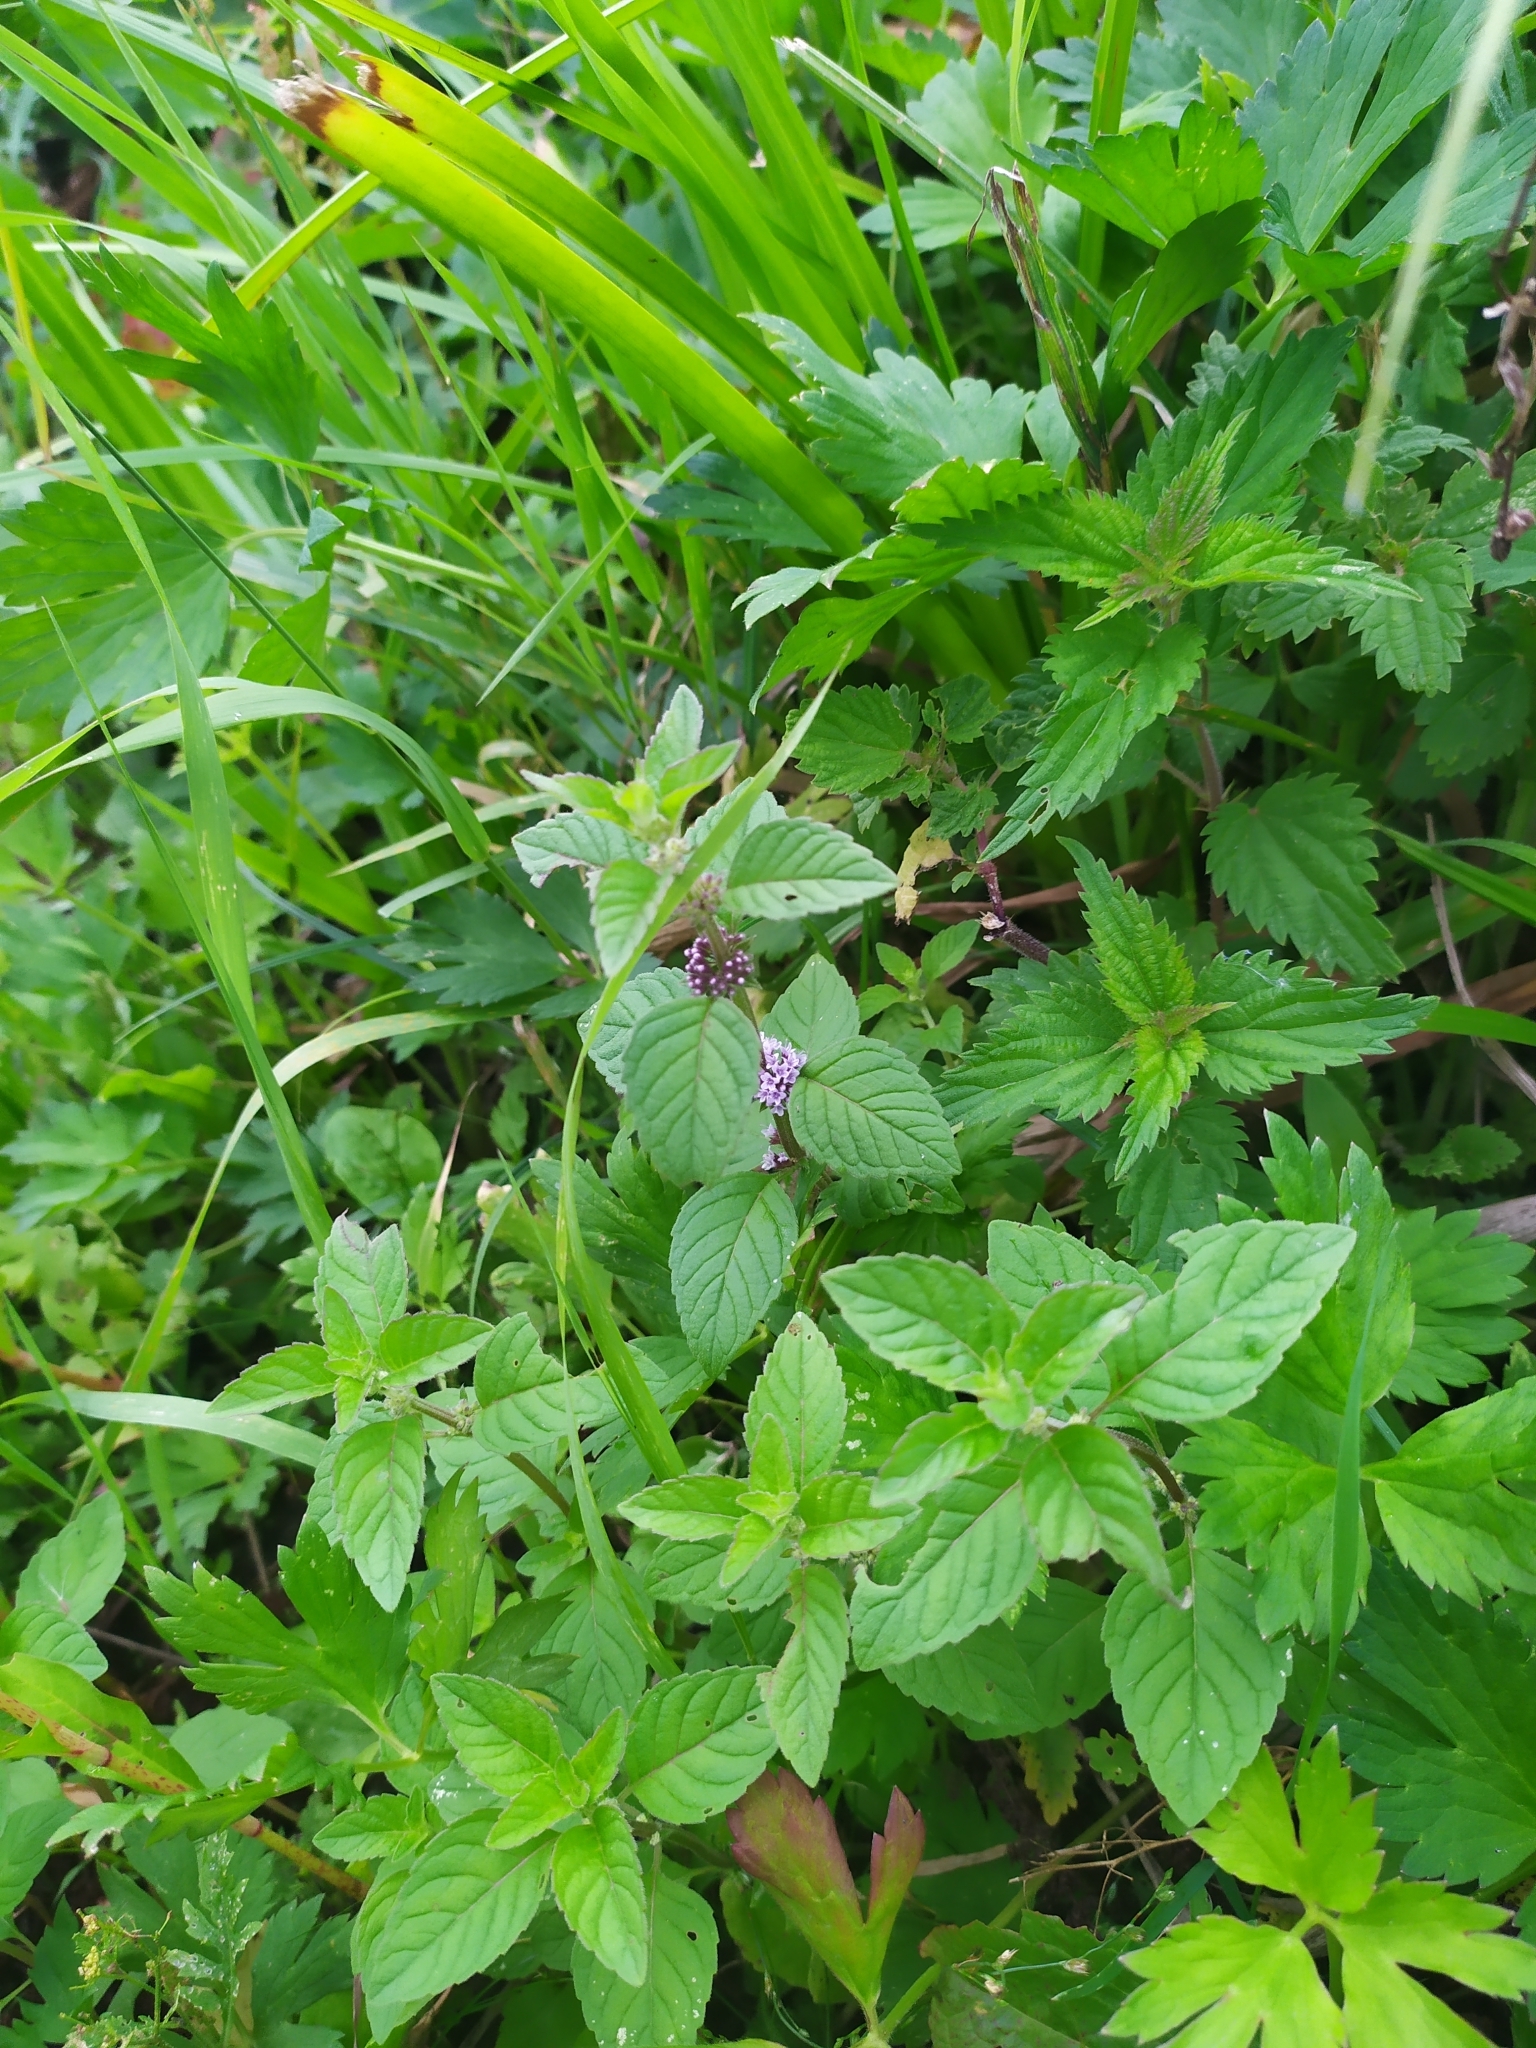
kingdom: Plantae
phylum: Tracheophyta
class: Magnoliopsida
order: Lamiales
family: Lamiaceae
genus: Mentha
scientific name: Mentha arvensis
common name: Corn mint
